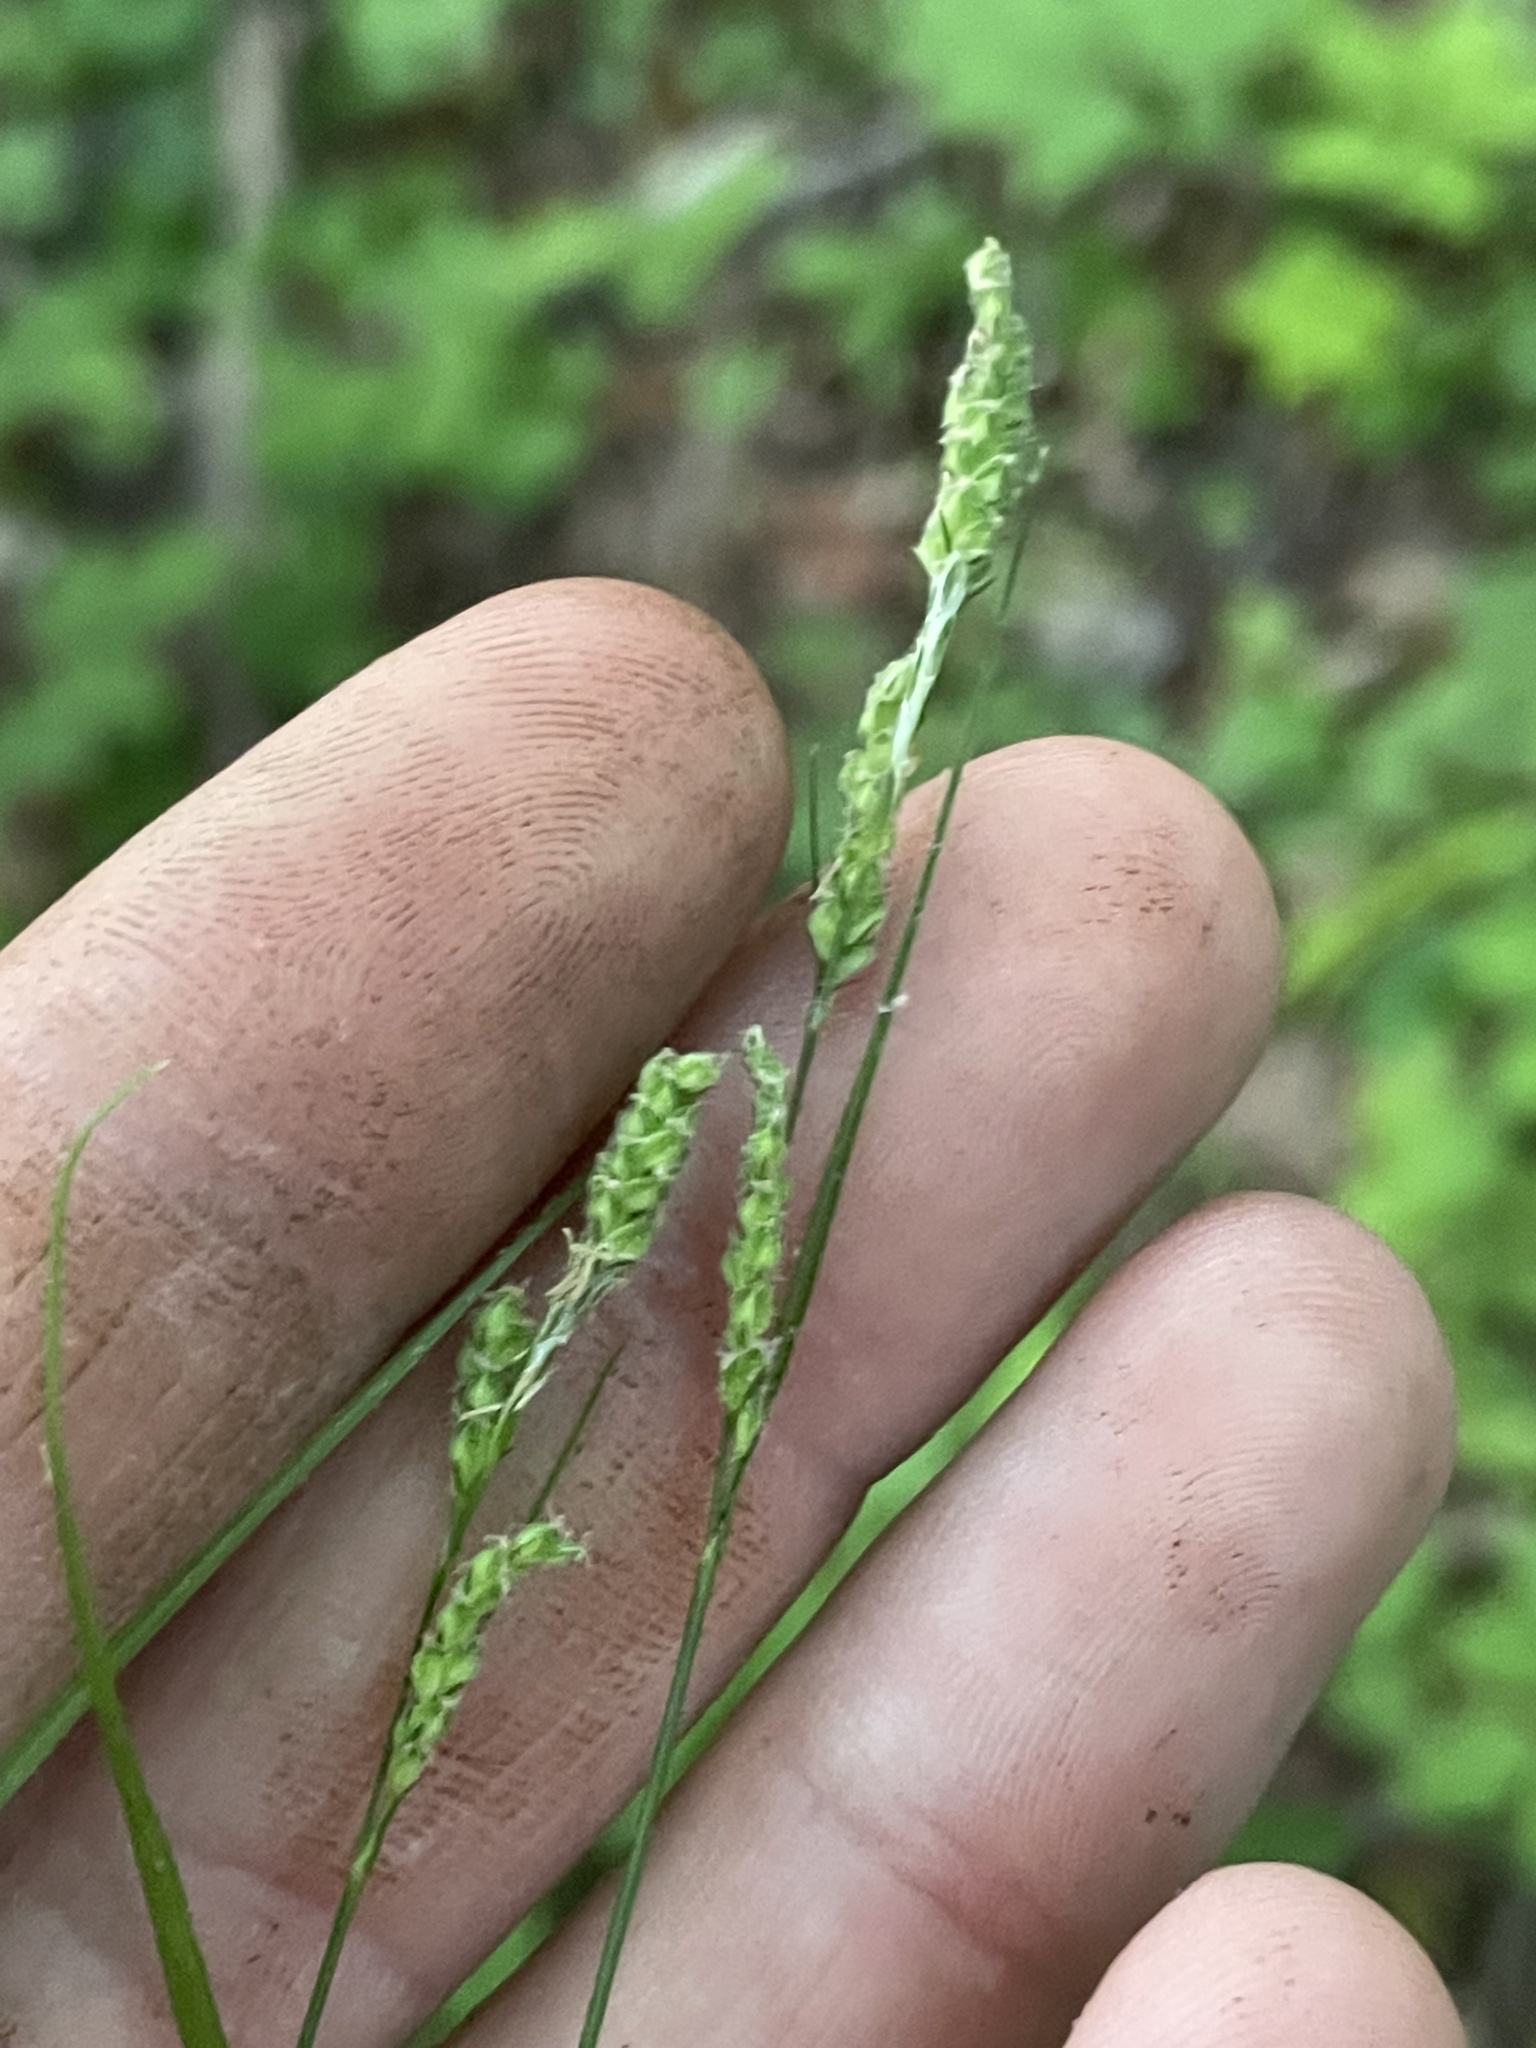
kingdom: Plantae
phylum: Tracheophyta
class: Liliopsida
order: Poales
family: Cyperaceae
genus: Carex
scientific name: Carex swanii
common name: Downy green sedge
